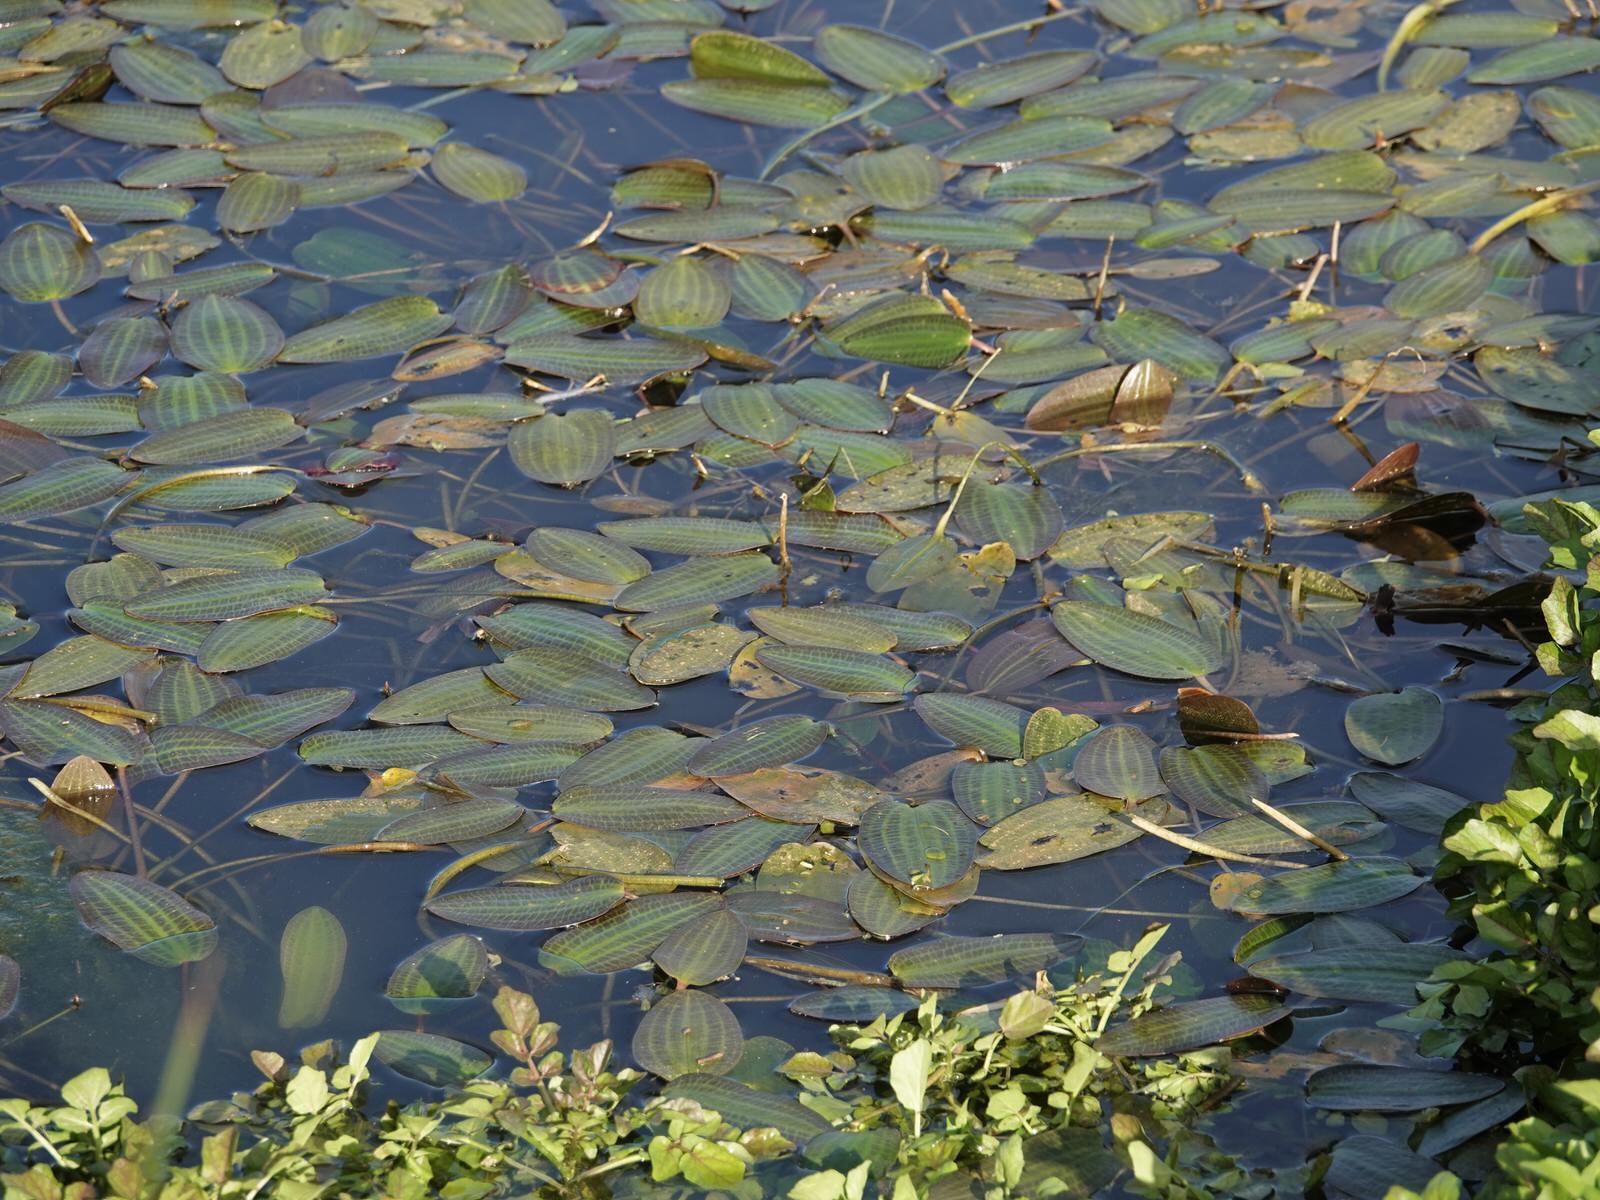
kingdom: Plantae
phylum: Tracheophyta
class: Liliopsida
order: Alismatales
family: Hydrocharitaceae
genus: Ottelia
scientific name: Ottelia ovalifolia
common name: Swamp-lily
